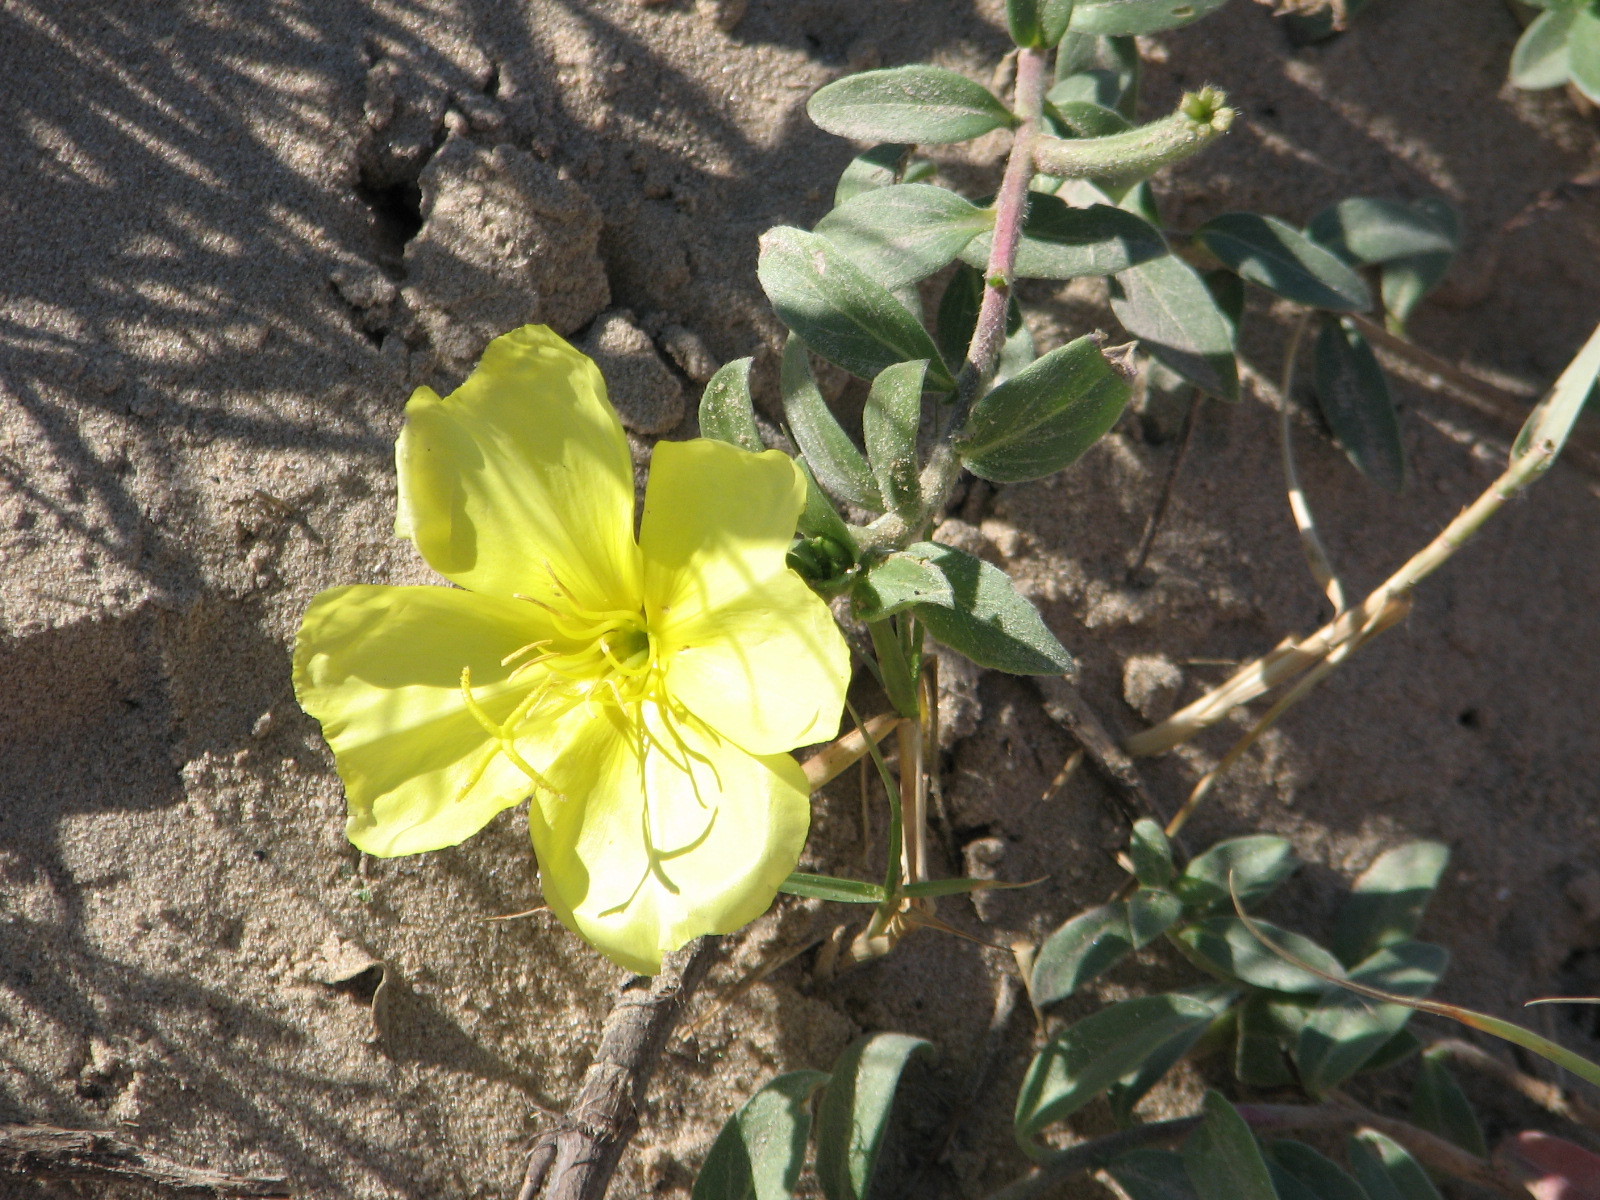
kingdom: Plantae
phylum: Tracheophyta
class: Magnoliopsida
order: Myrtales
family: Onagraceae
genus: Oenothera
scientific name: Oenothera drummondii
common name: Beach evening-primrose
